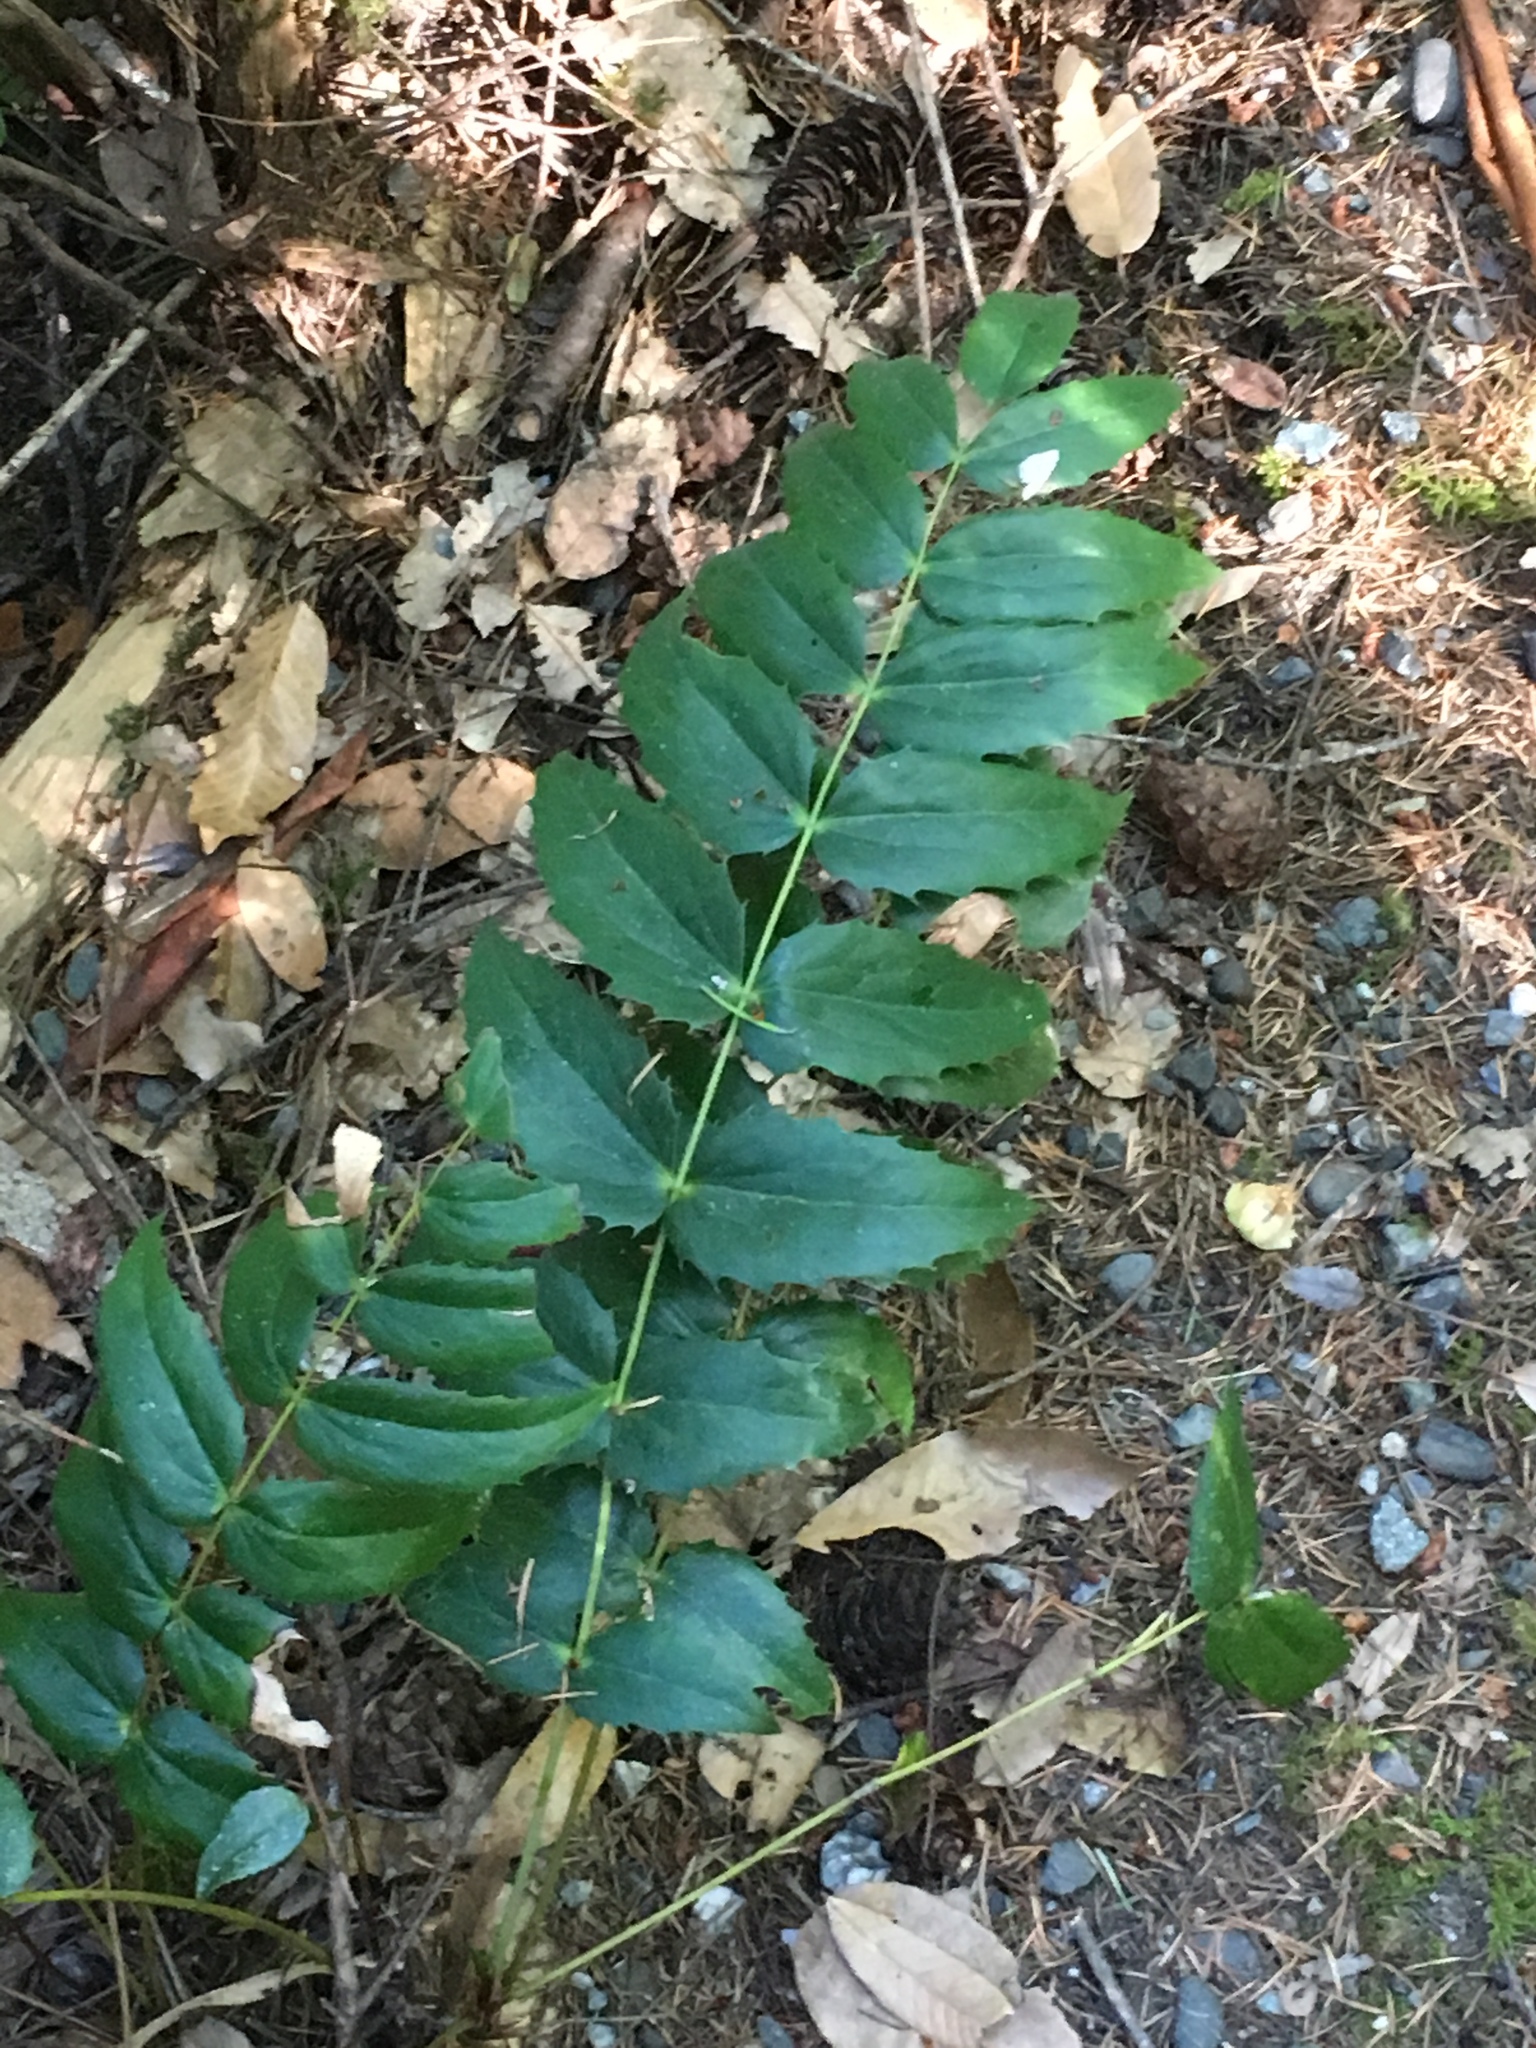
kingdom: Plantae
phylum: Tracheophyta
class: Magnoliopsida
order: Ranunculales
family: Berberidaceae
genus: Mahonia
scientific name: Mahonia nervosa
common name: Cascade oregon-grape
